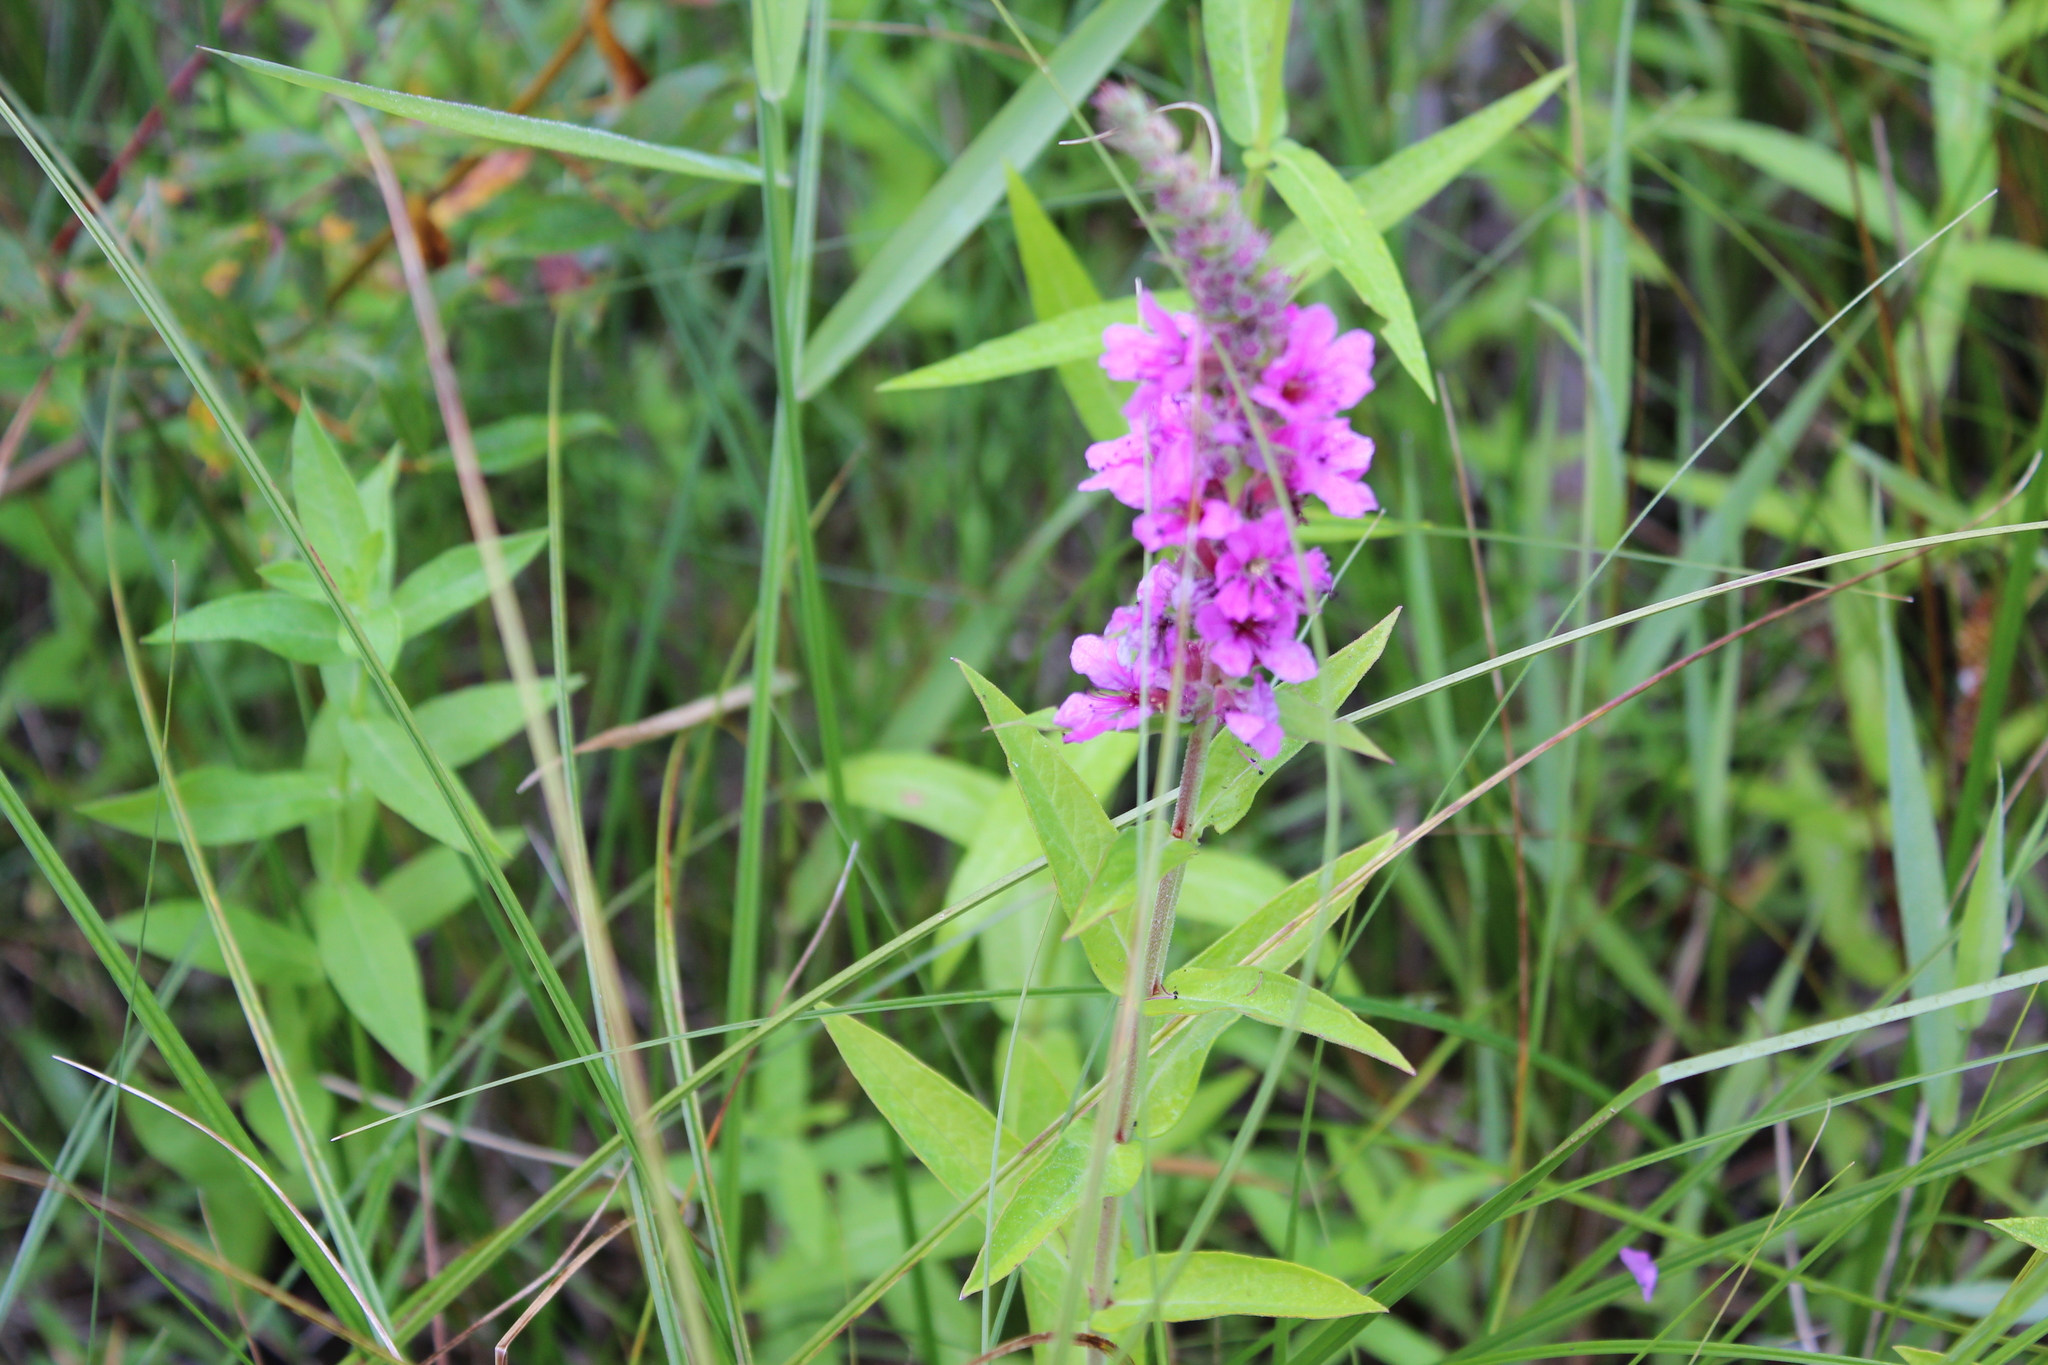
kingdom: Plantae
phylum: Tracheophyta
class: Magnoliopsida
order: Myrtales
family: Lythraceae
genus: Lythrum
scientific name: Lythrum salicaria
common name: Purple loosestrife
